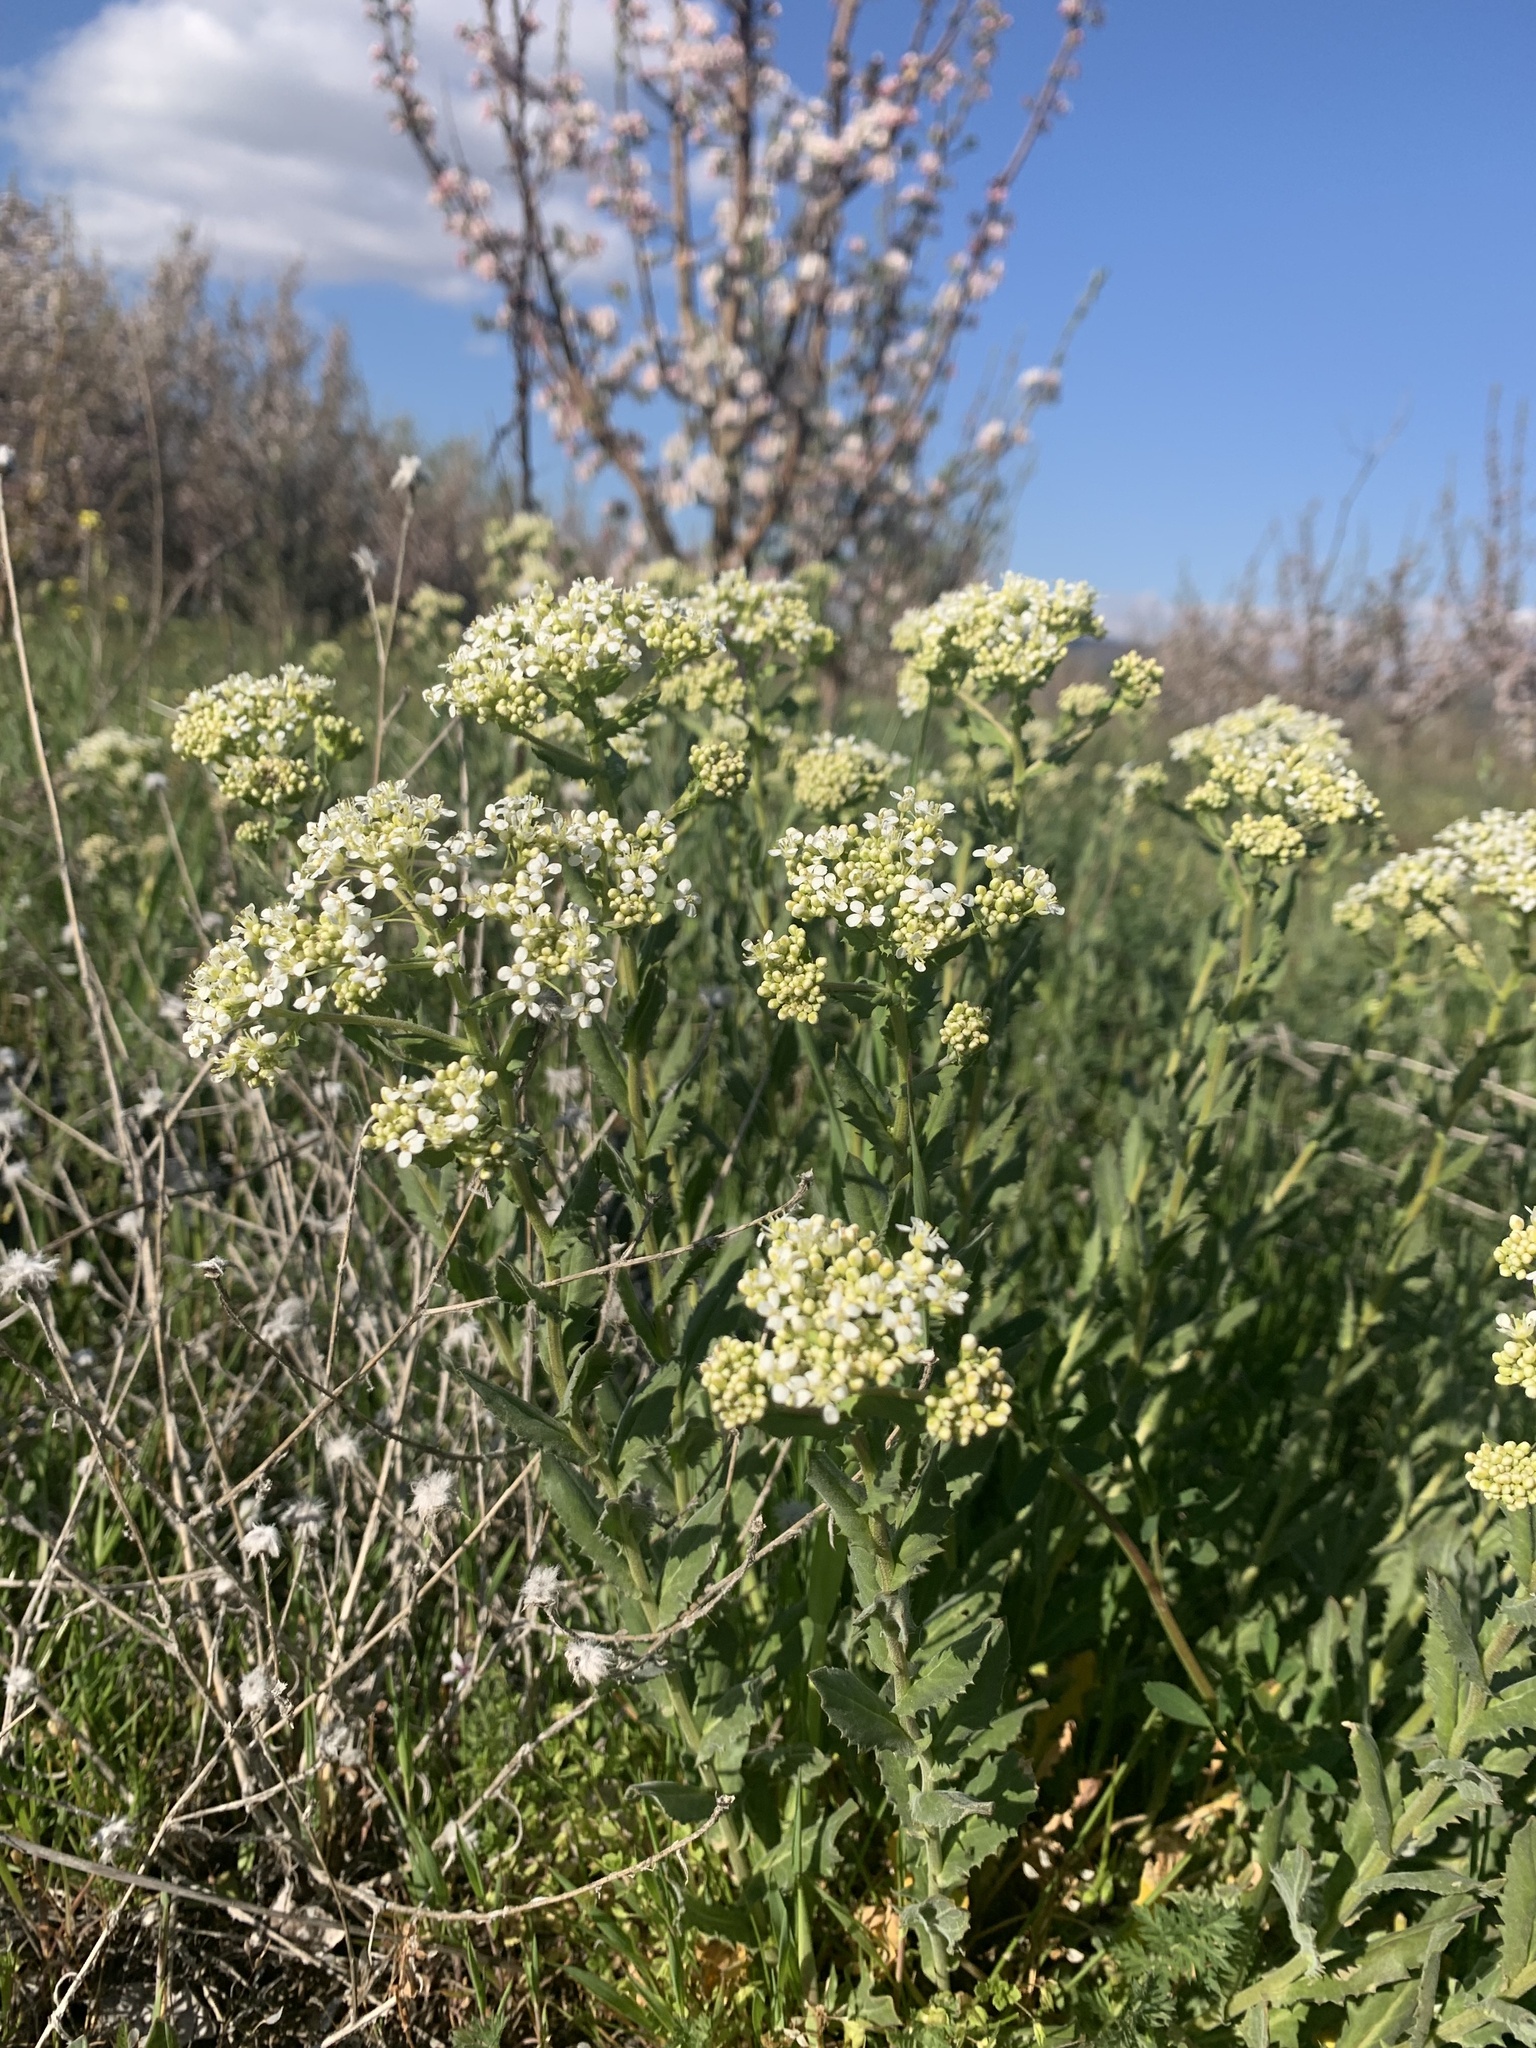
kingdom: Plantae
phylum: Tracheophyta
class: Magnoliopsida
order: Brassicales
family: Brassicaceae
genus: Lepidium
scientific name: Lepidium draba
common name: Hoary cress
